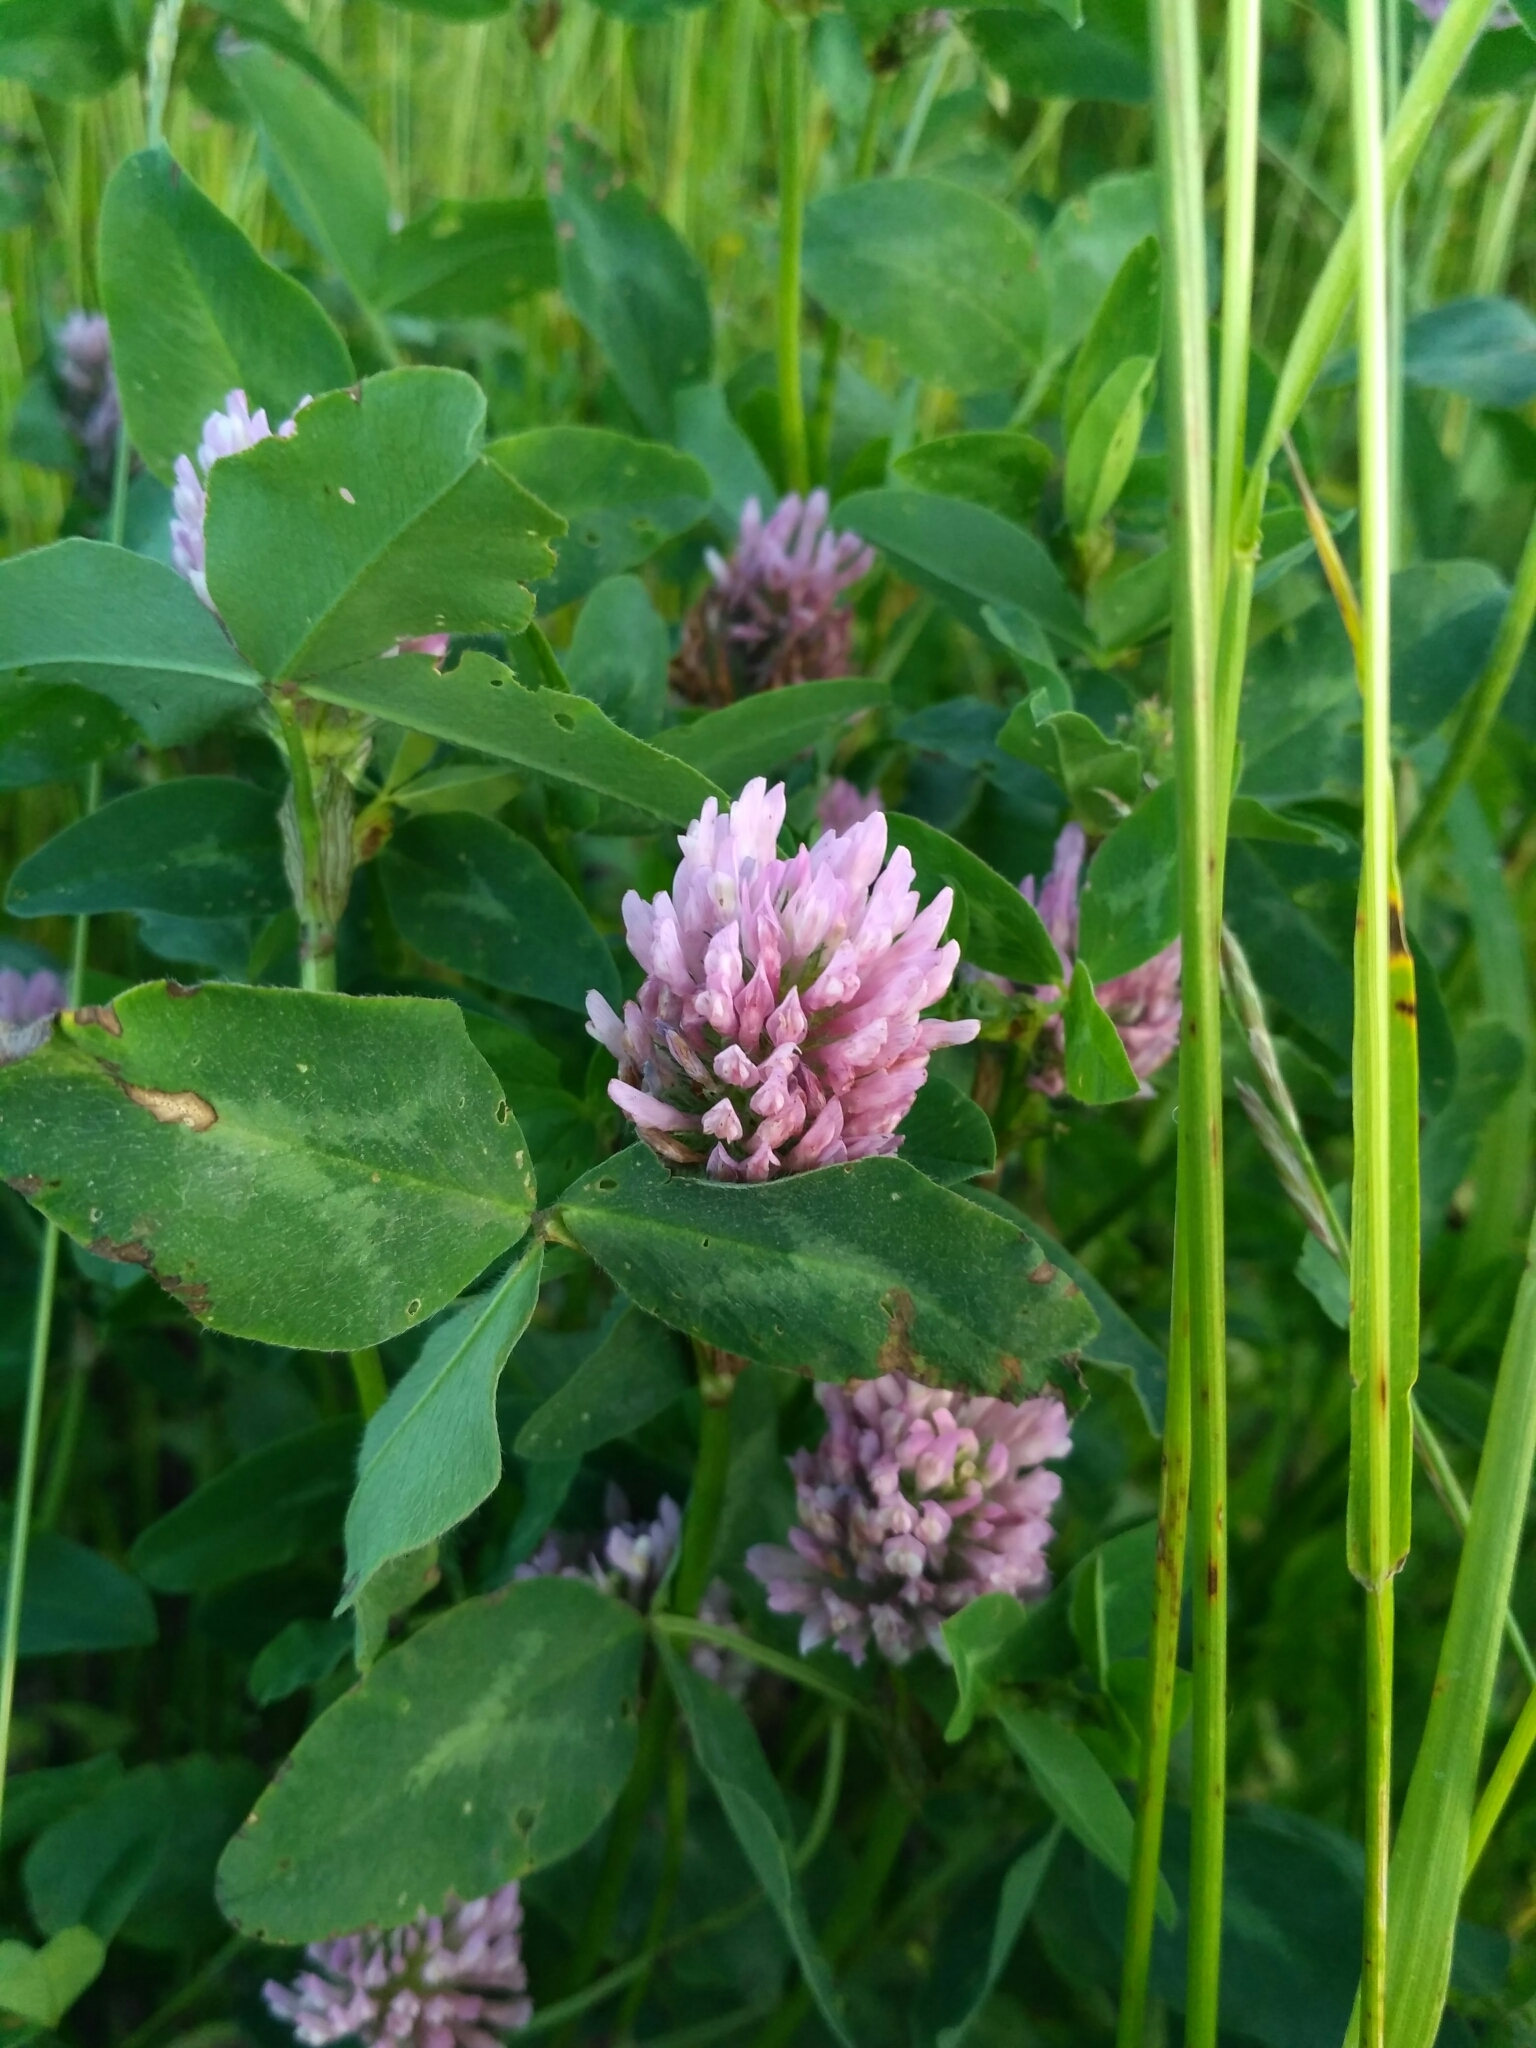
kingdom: Plantae
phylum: Tracheophyta
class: Magnoliopsida
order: Fabales
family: Fabaceae
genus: Trifolium
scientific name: Trifolium pratense
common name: Red clover
